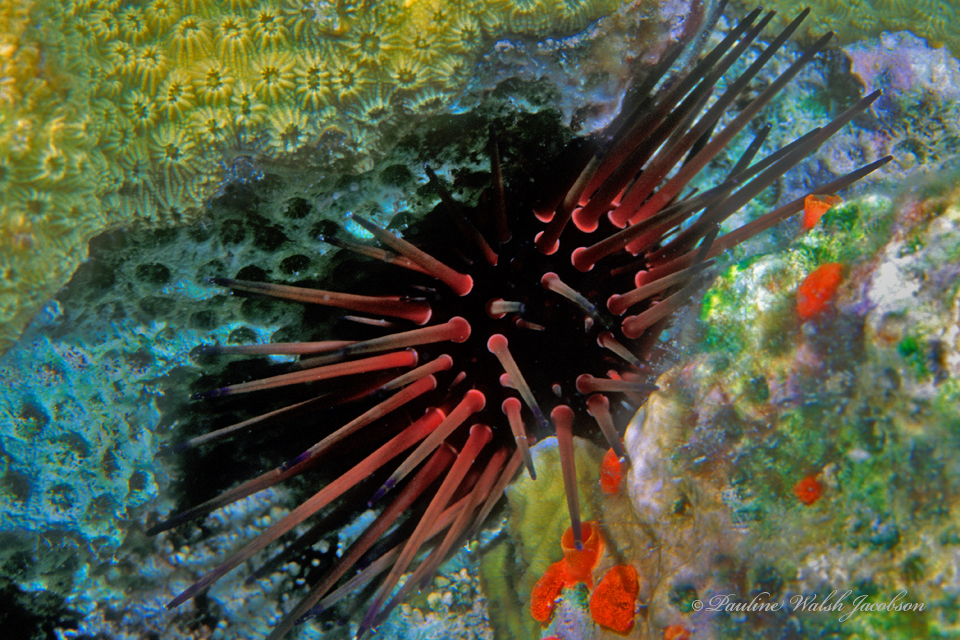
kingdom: Animalia
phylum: Echinodermata
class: Echinoidea
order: Camarodonta
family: Echinometridae
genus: Echinometra
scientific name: Echinometra lucunter
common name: Rock urchin
